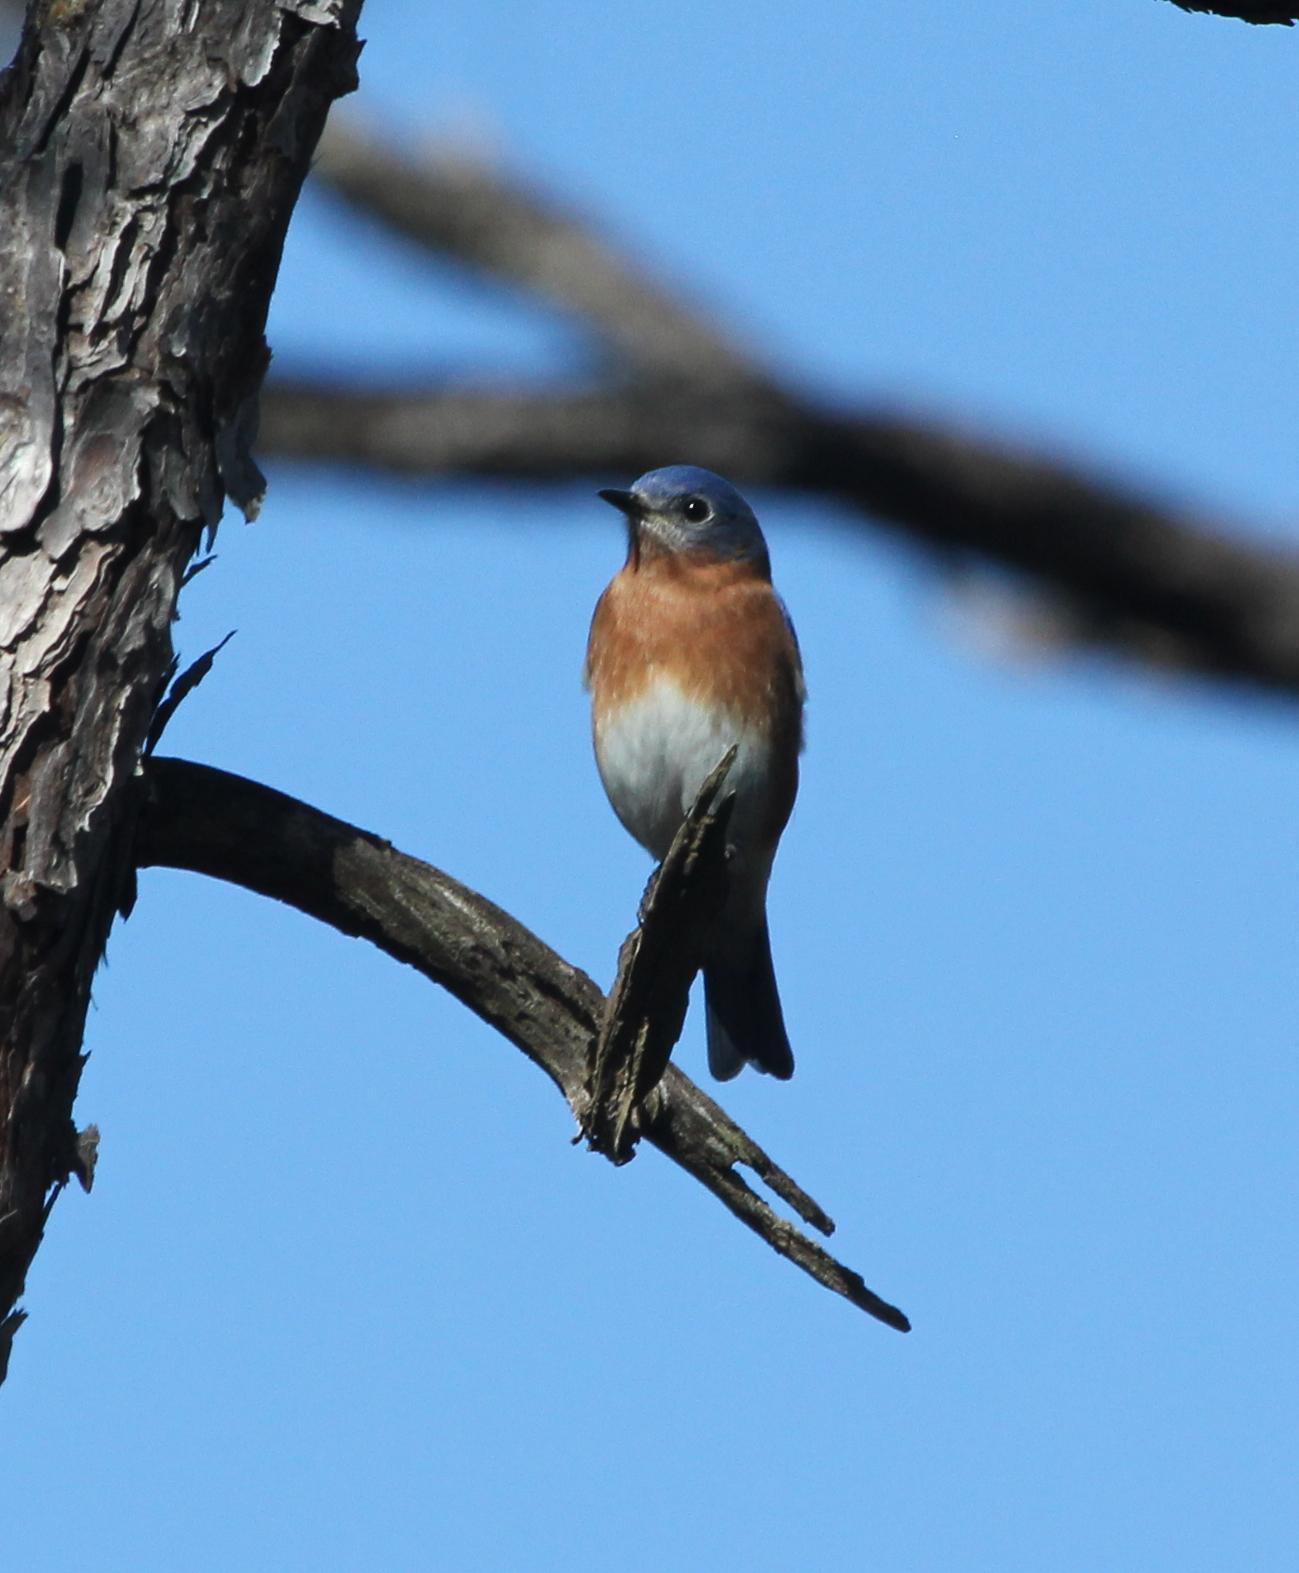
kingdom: Animalia
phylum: Chordata
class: Aves
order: Passeriformes
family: Turdidae
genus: Sialia
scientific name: Sialia sialis
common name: Eastern bluebird
